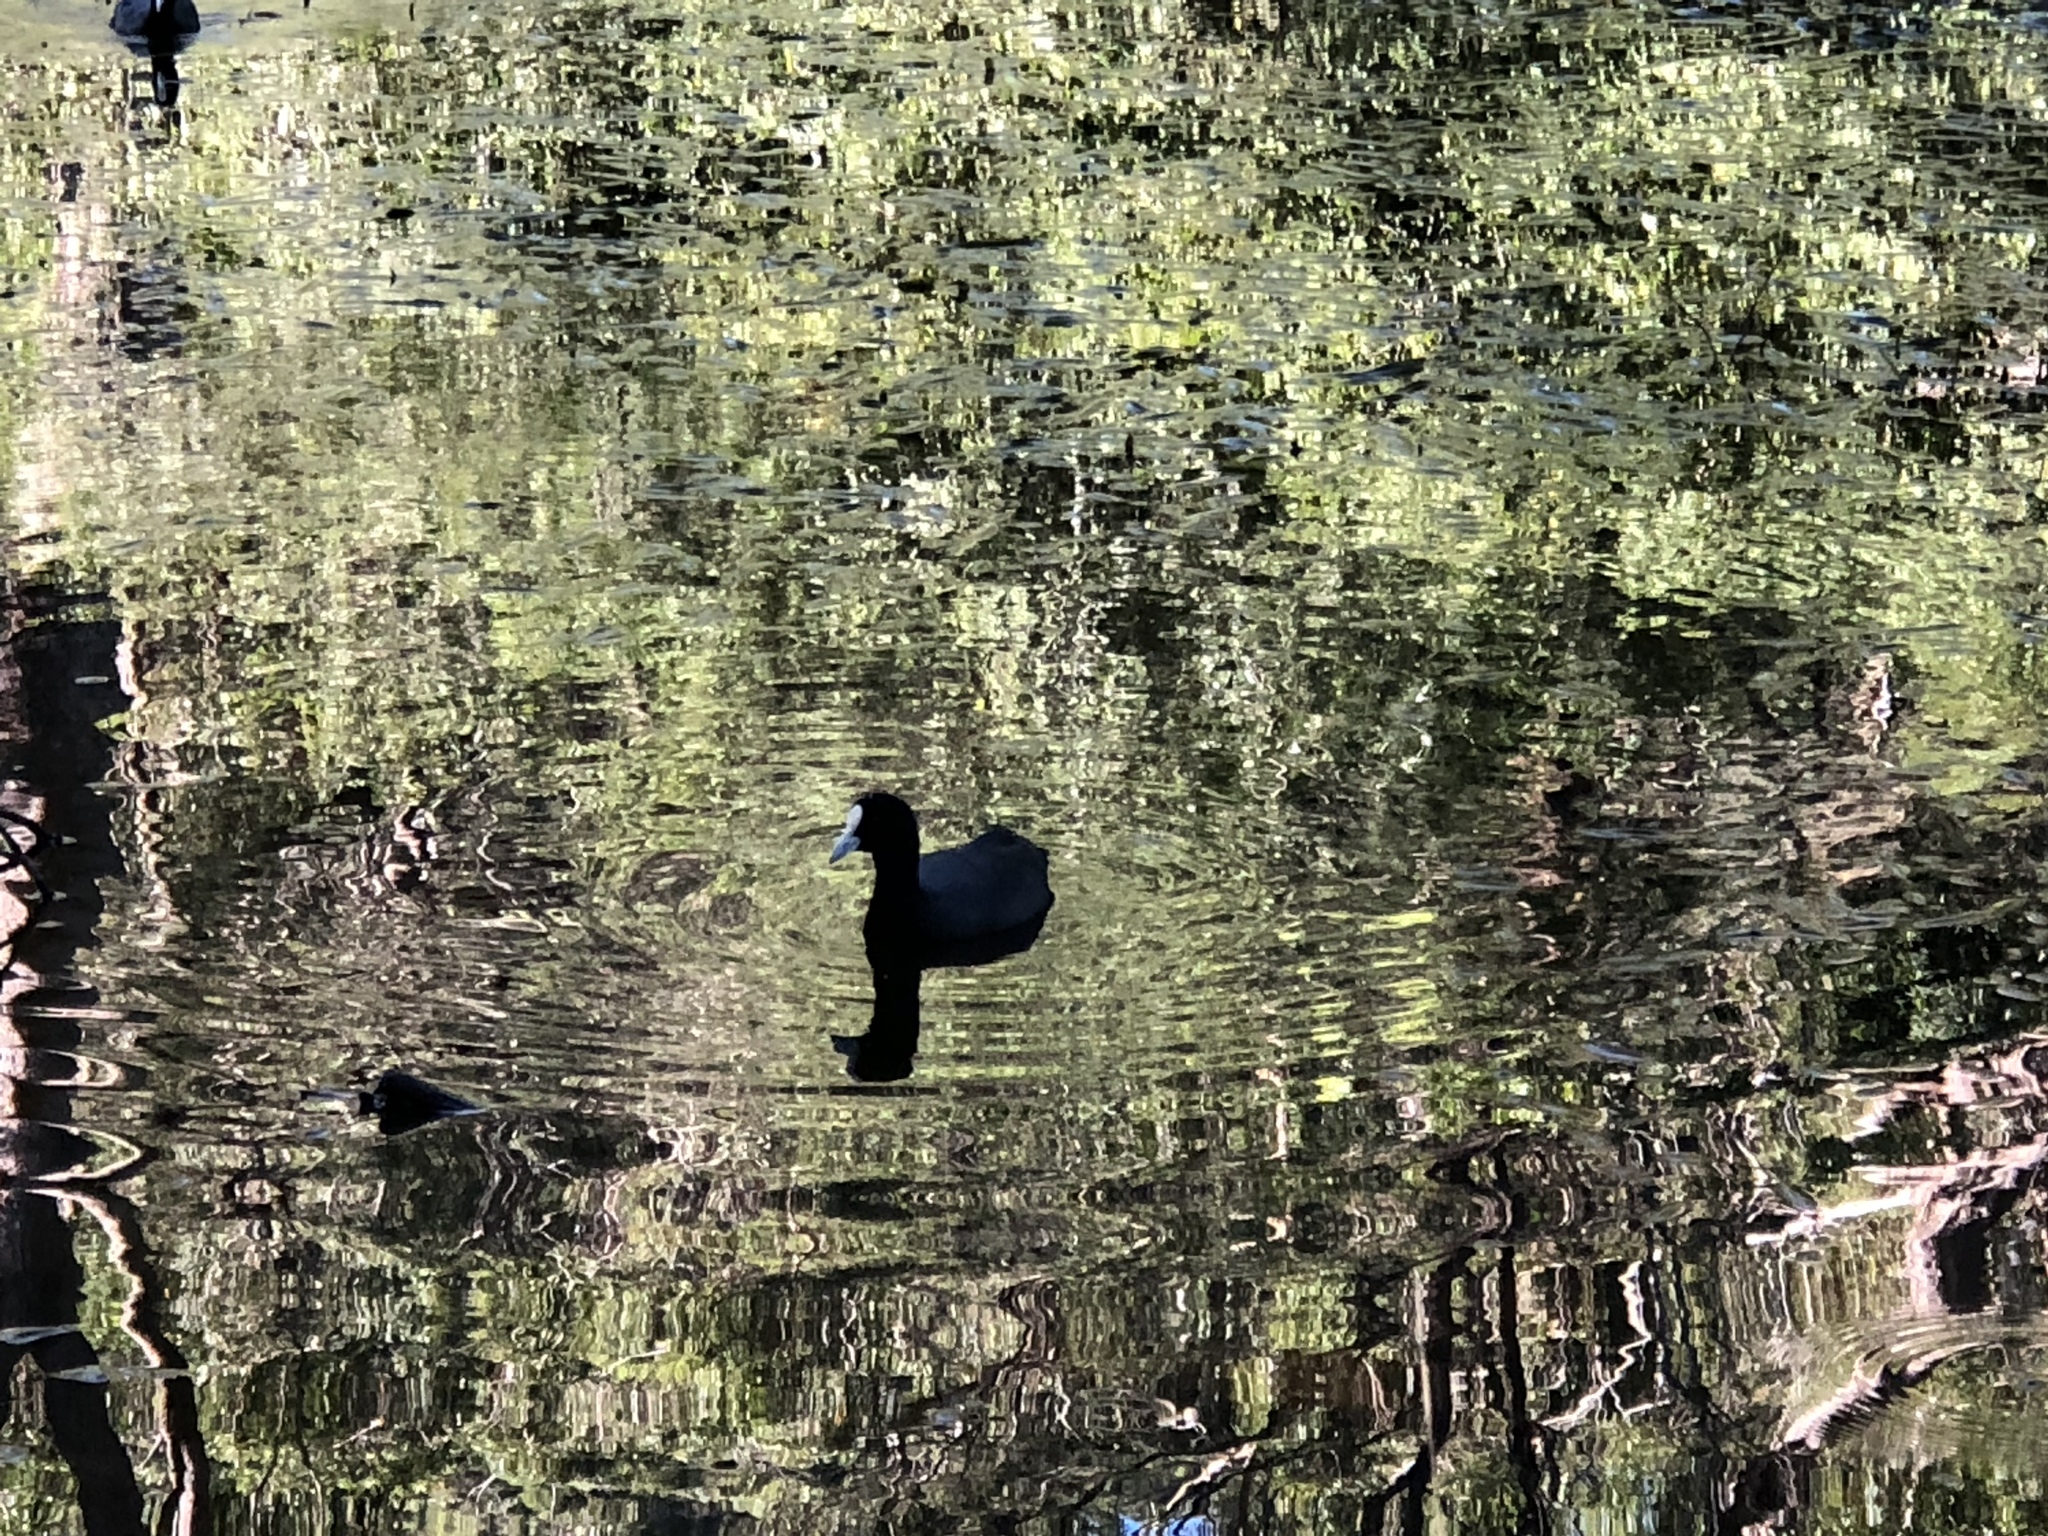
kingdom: Animalia
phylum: Chordata
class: Aves
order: Gruiformes
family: Rallidae
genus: Fulica
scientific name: Fulica atra
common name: Eurasian coot
